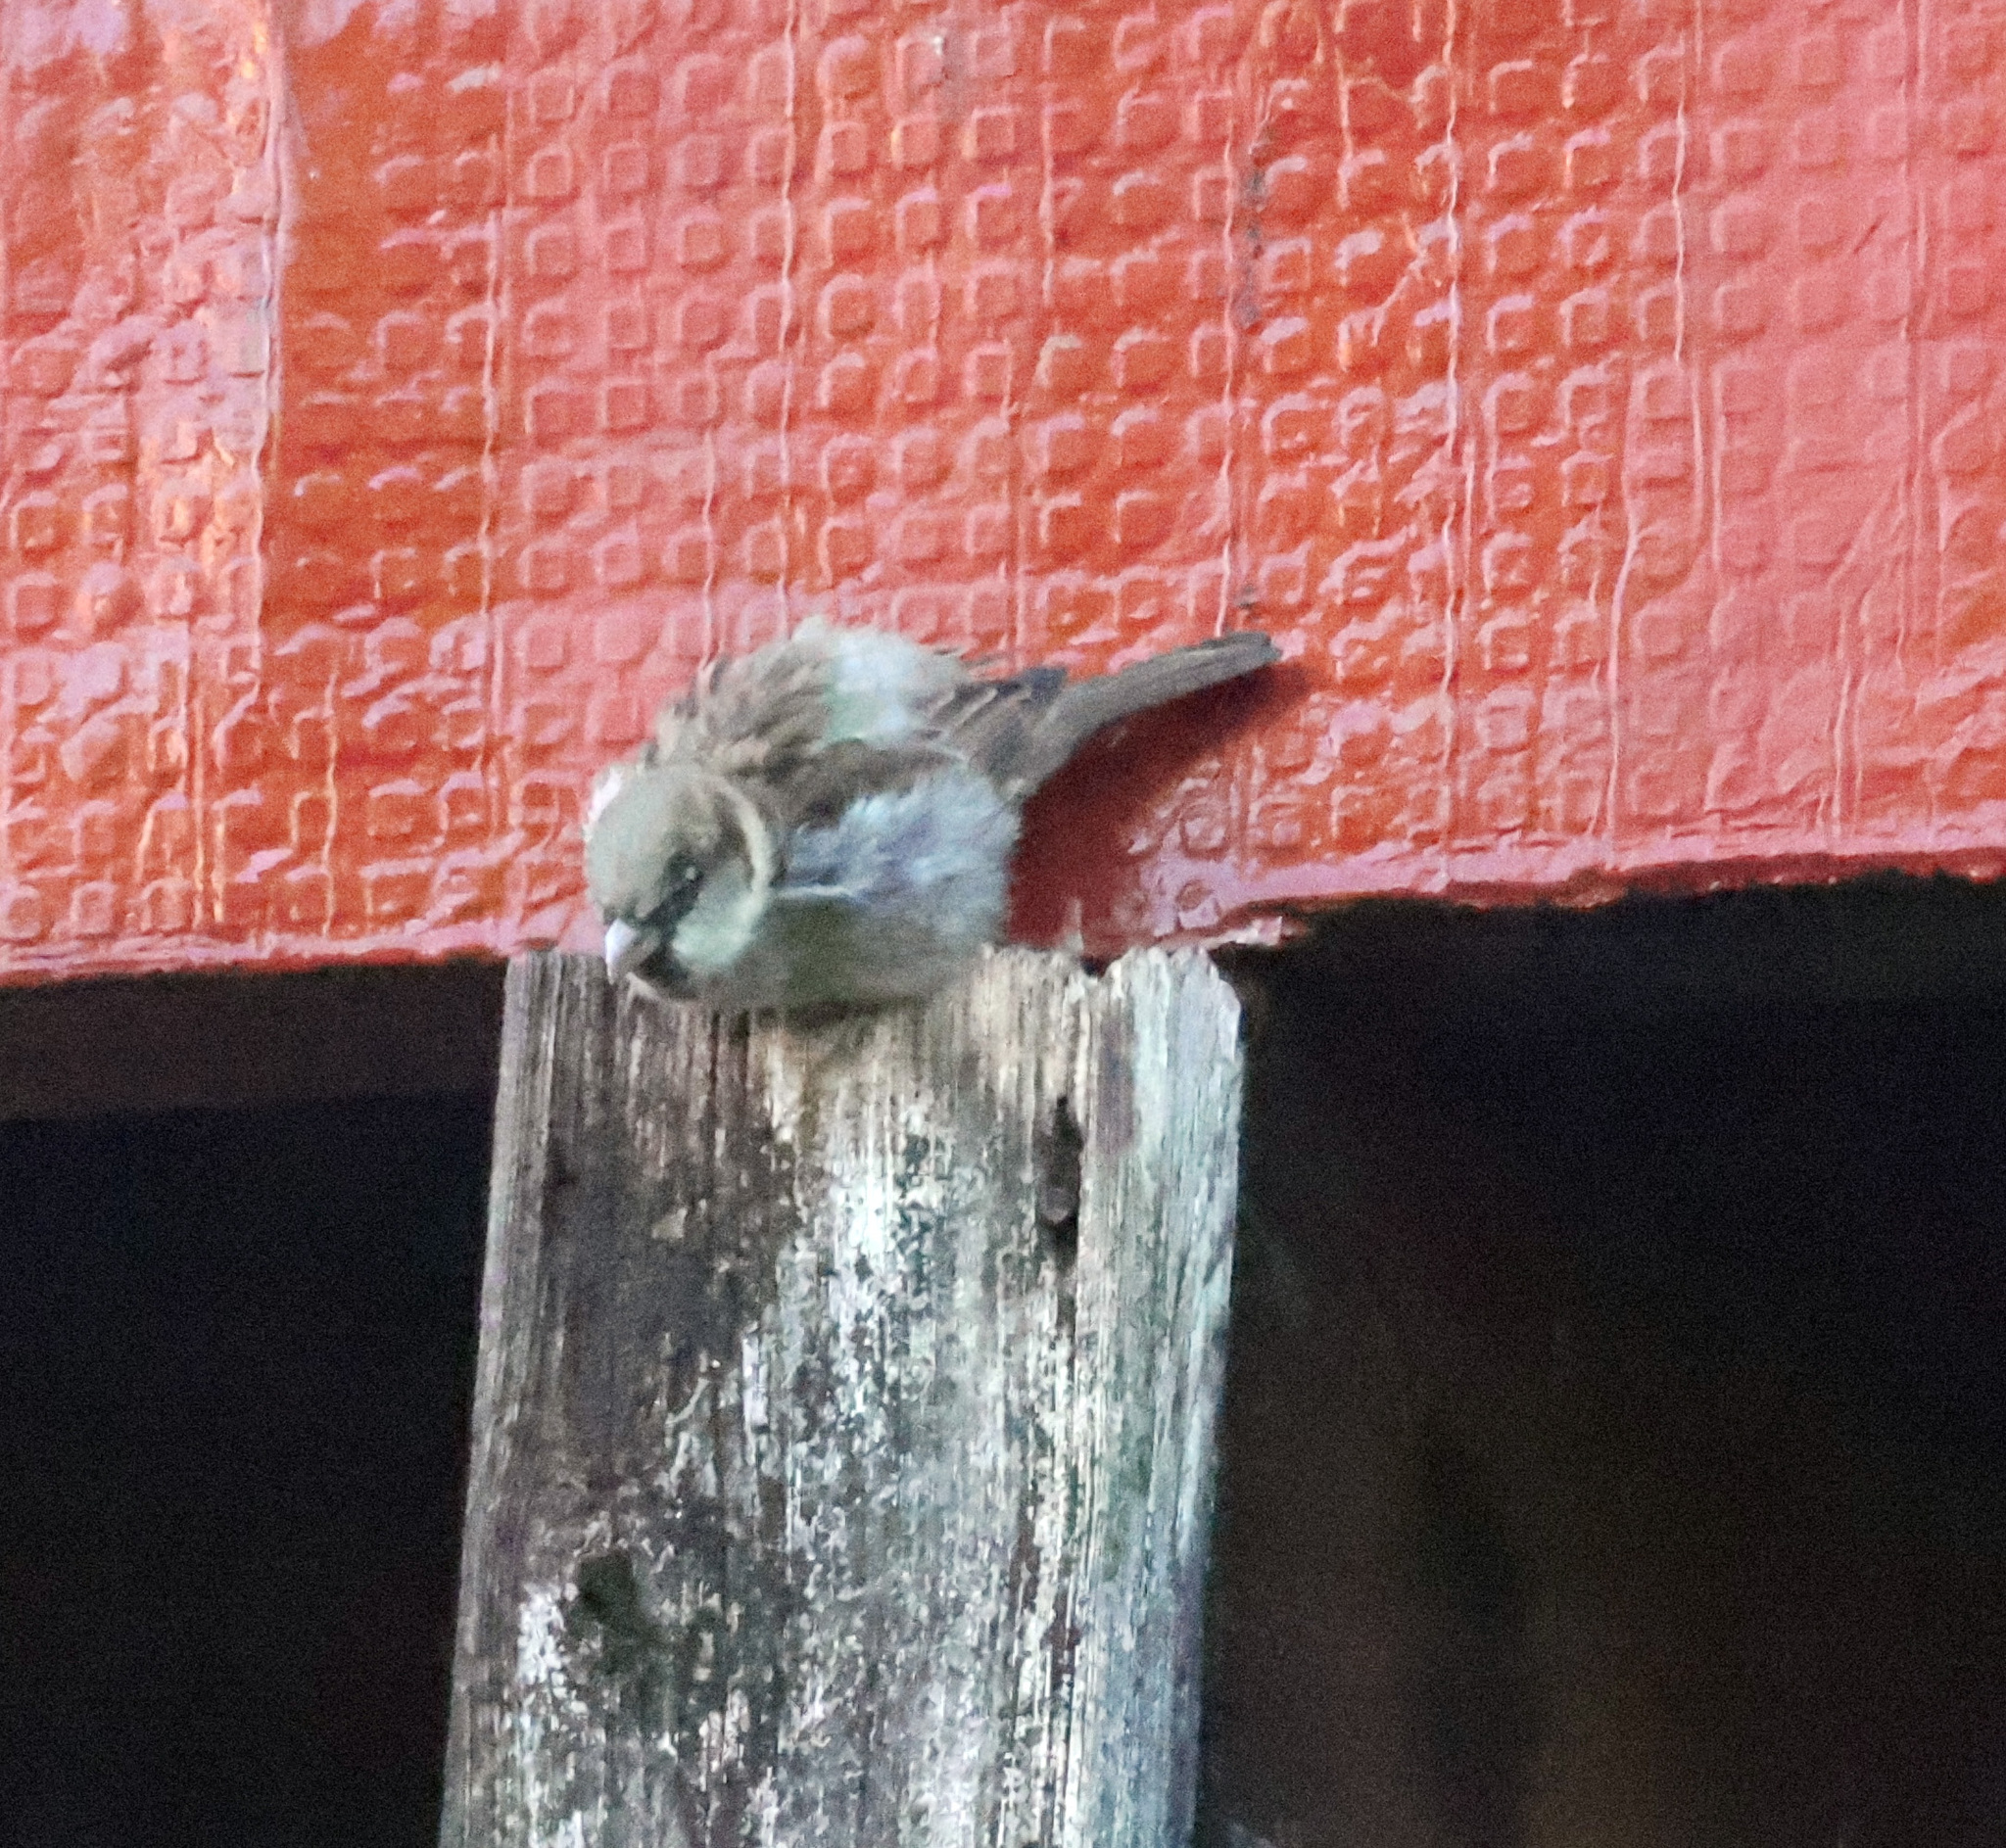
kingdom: Animalia
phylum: Chordata
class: Aves
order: Passeriformes
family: Passeridae
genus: Passer
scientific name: Passer domesticus
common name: House sparrow
